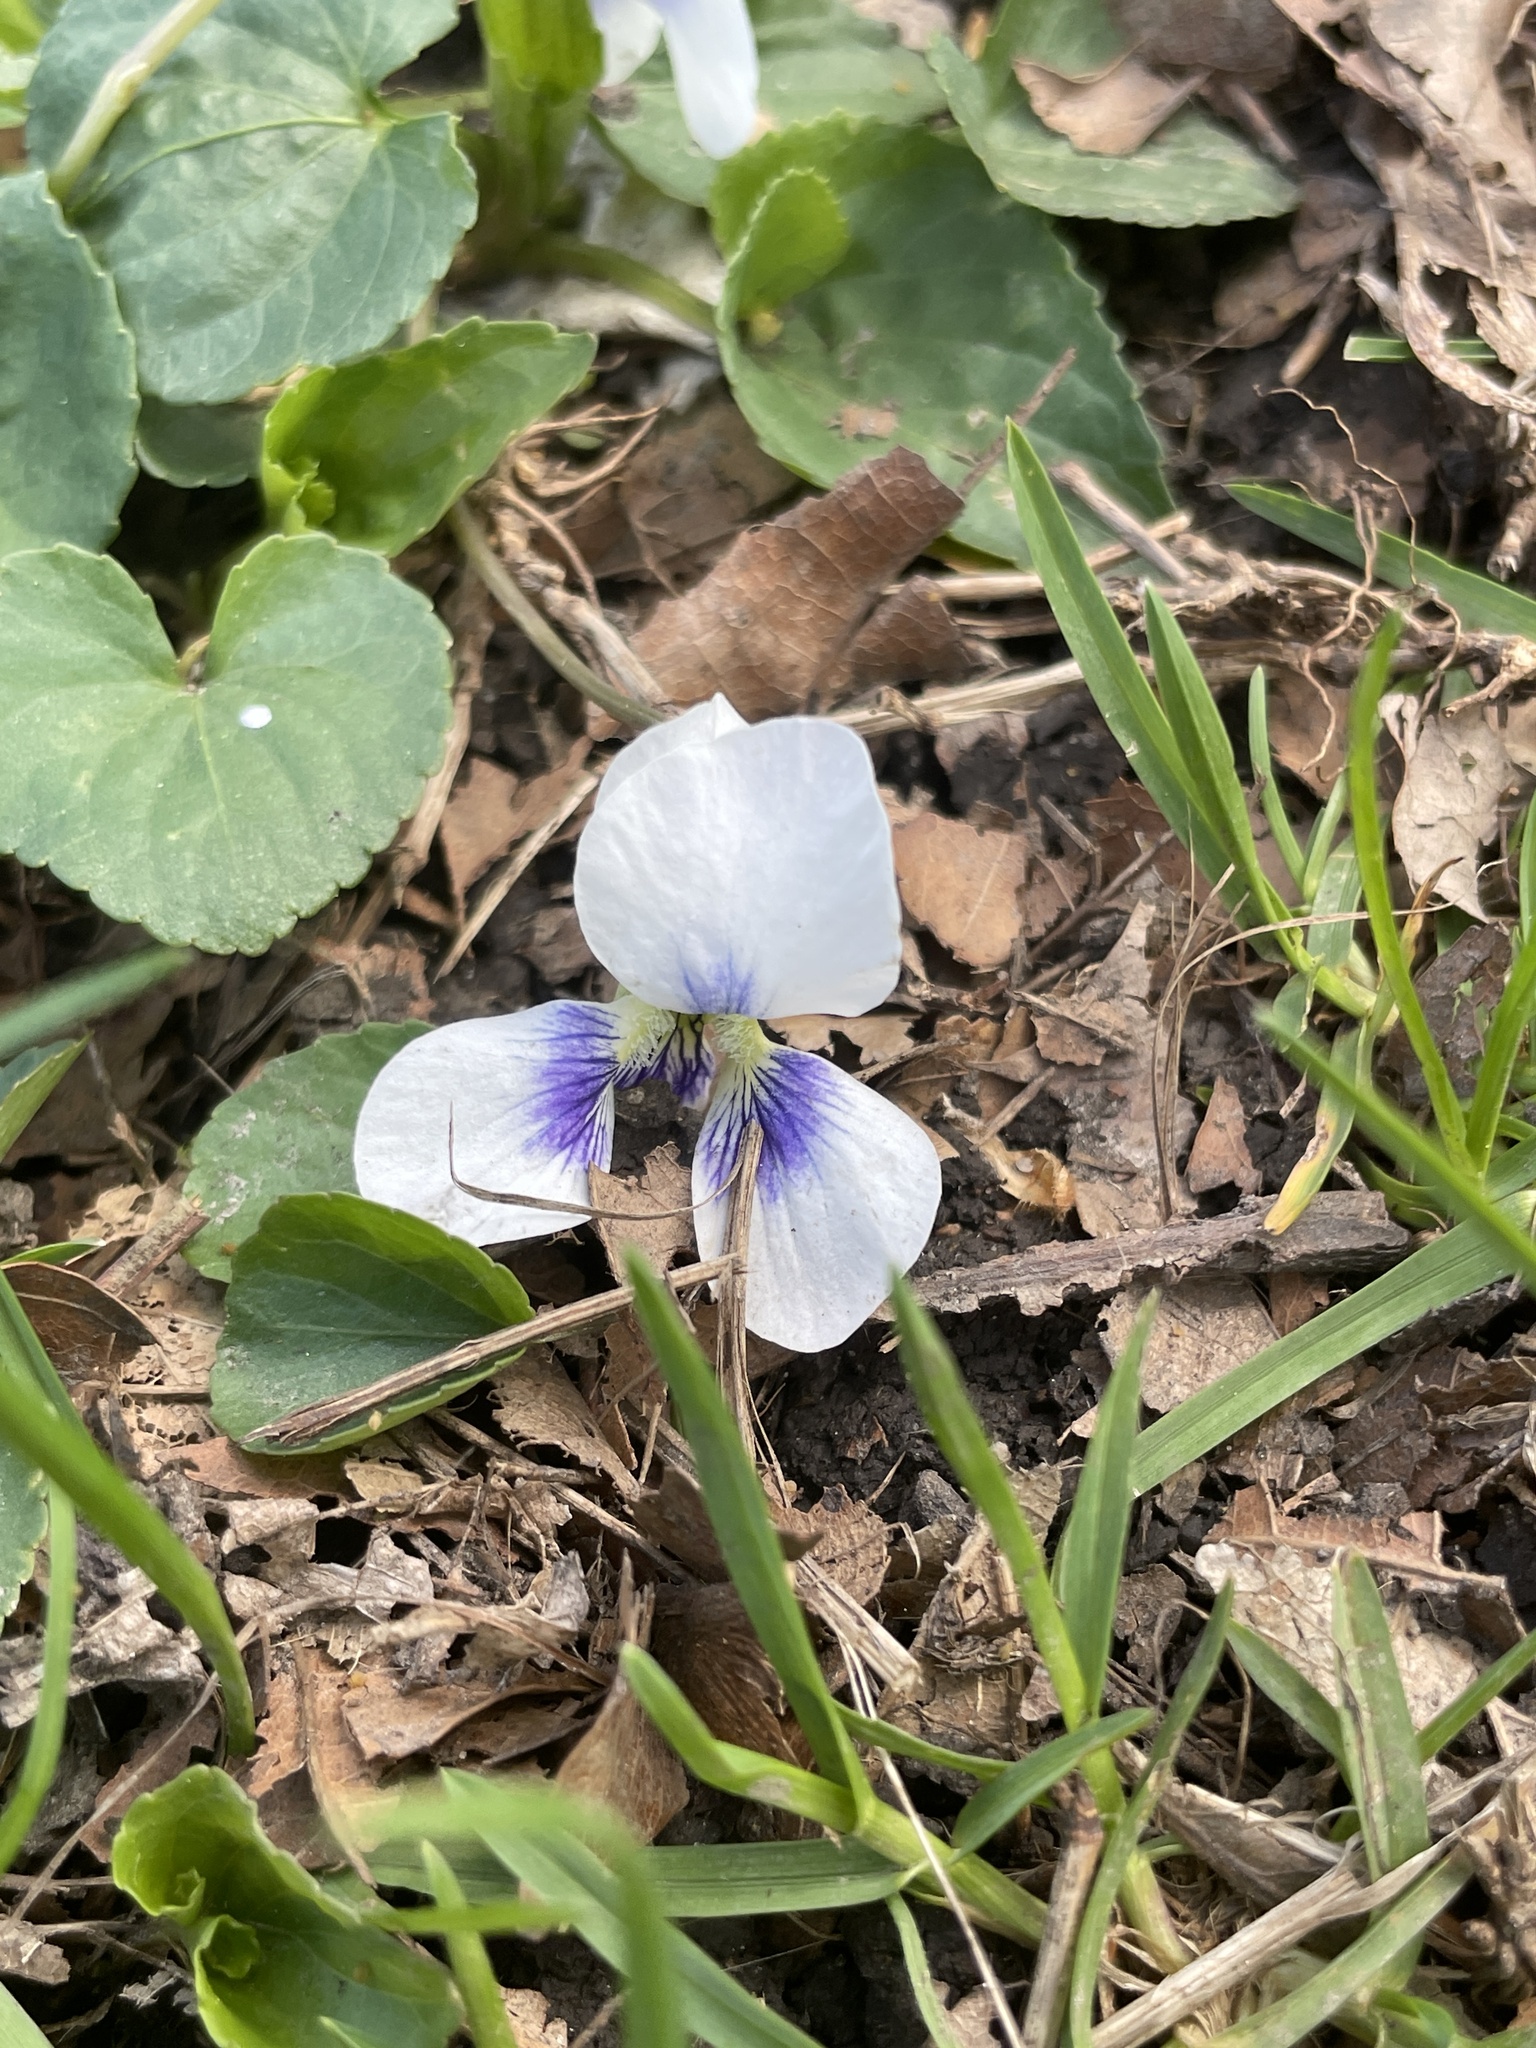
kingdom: Plantae
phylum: Tracheophyta
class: Magnoliopsida
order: Malpighiales
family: Violaceae
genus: Viola
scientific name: Viola sororia
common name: Dooryard violet
